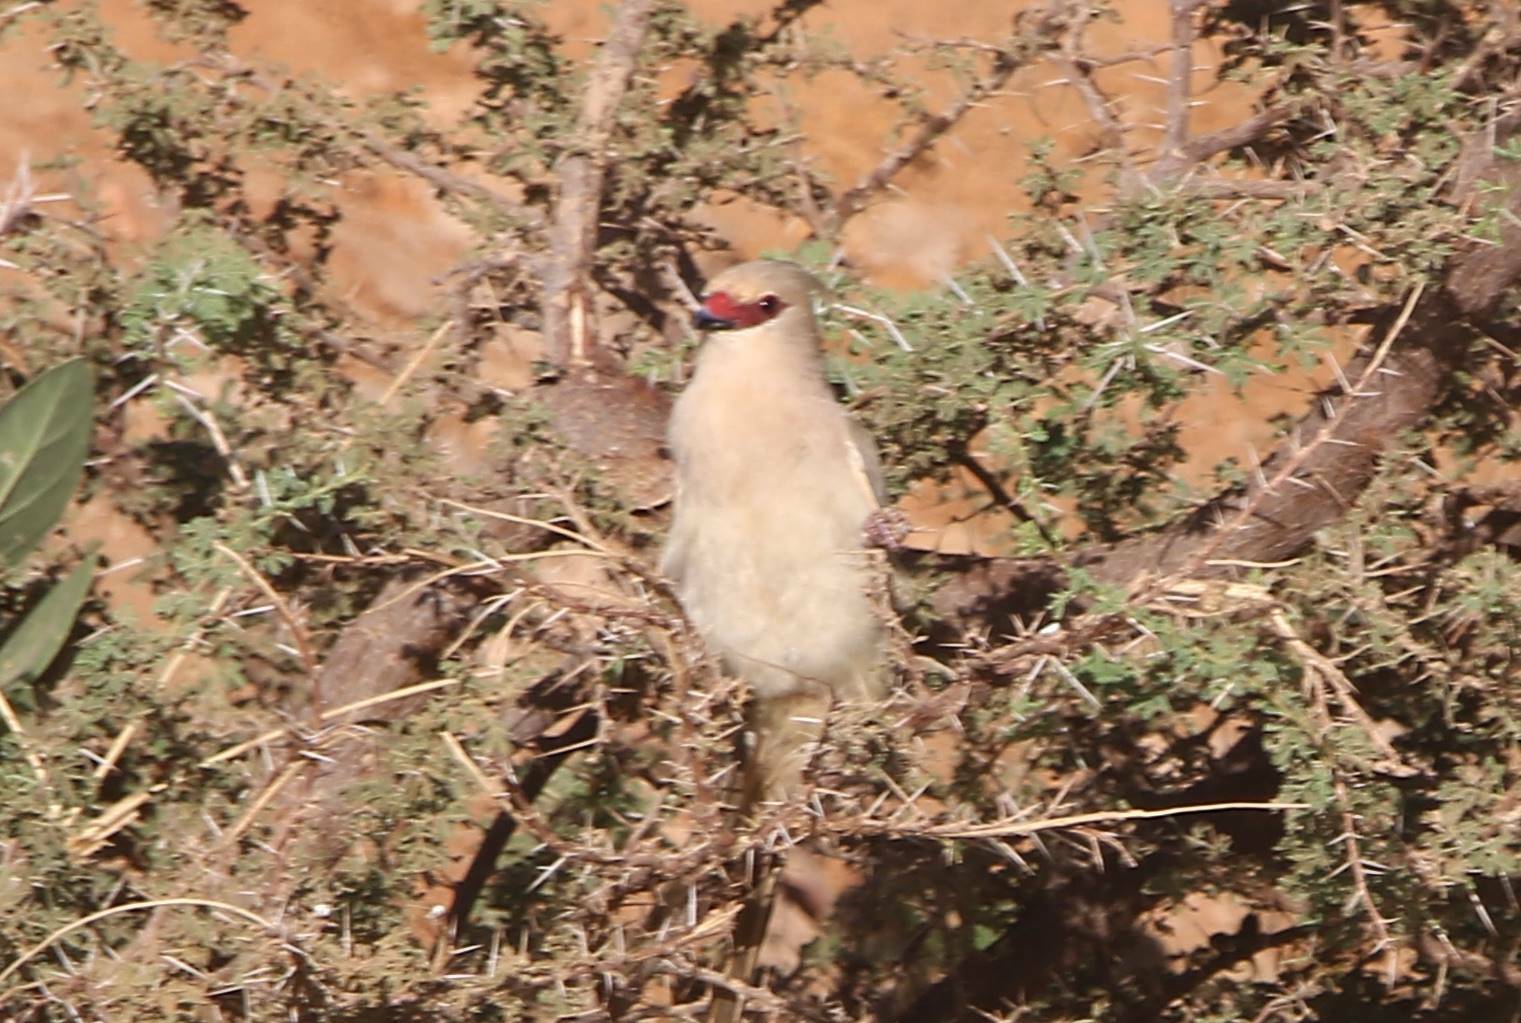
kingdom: Animalia
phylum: Chordata
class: Aves
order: Coliiformes
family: Coliidae
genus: Urocolius
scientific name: Urocolius macrourus
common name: Blue-naped mousebird
